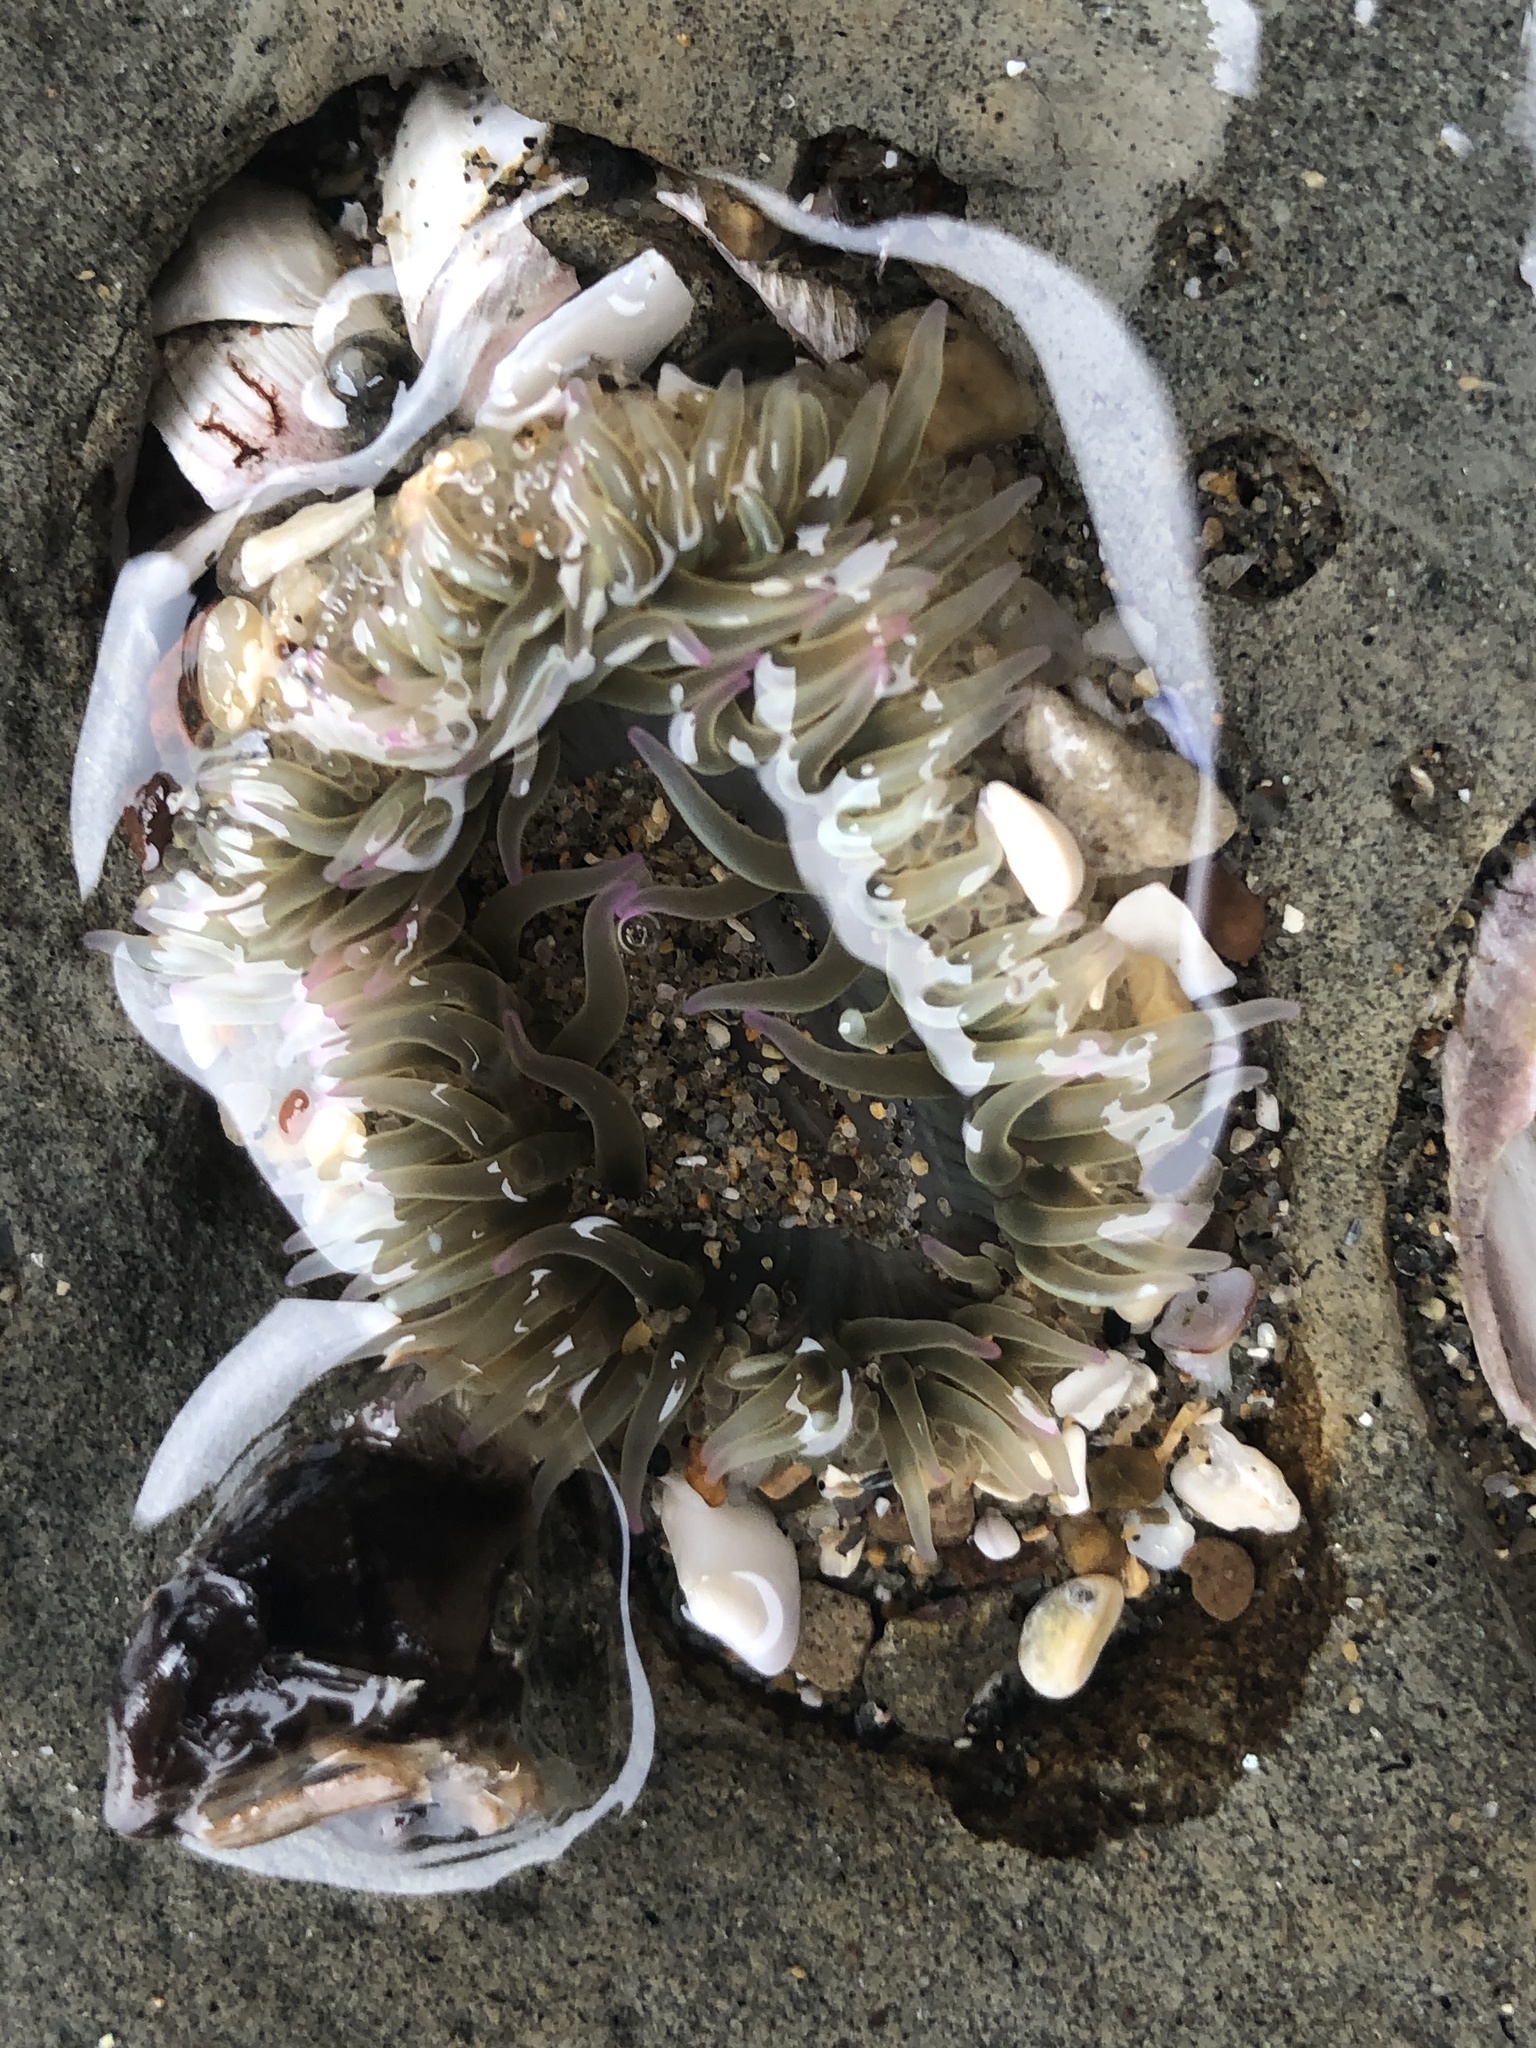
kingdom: Animalia
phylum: Cnidaria
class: Anthozoa
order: Actiniaria
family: Actiniidae
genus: Anthopleura
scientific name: Anthopleura elegantissima
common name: Clonal anemone
